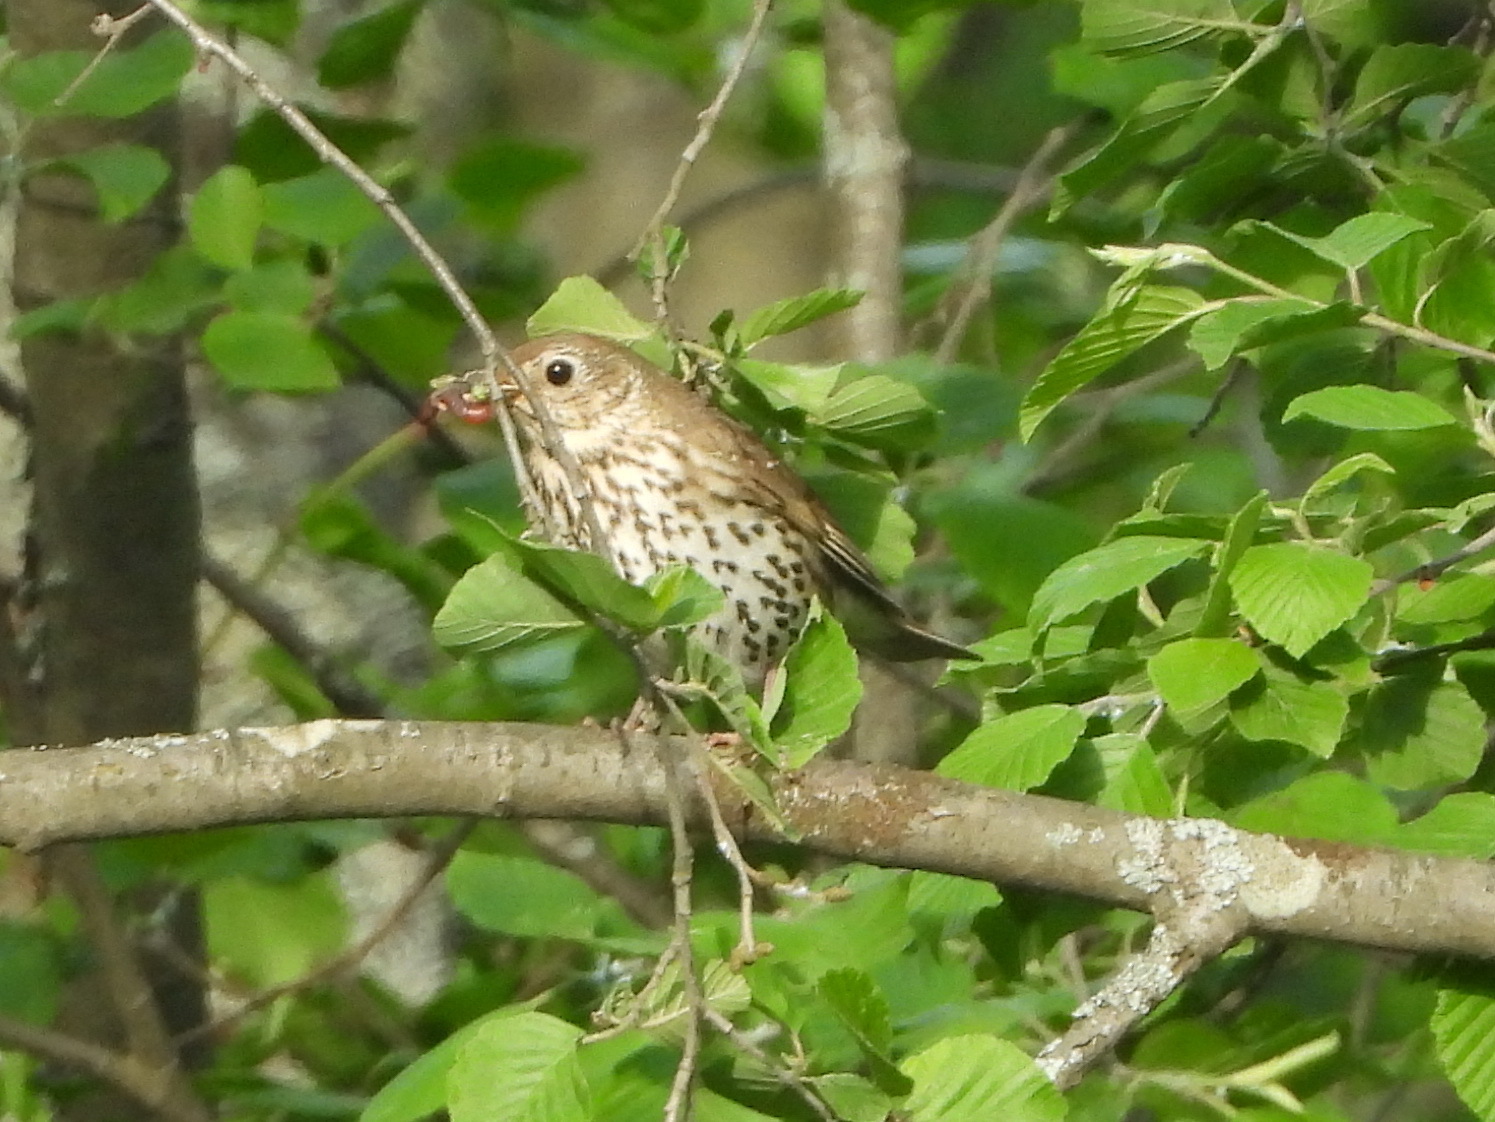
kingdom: Animalia
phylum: Chordata
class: Aves
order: Passeriformes
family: Turdidae
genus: Turdus
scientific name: Turdus philomelos
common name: Song thrush
